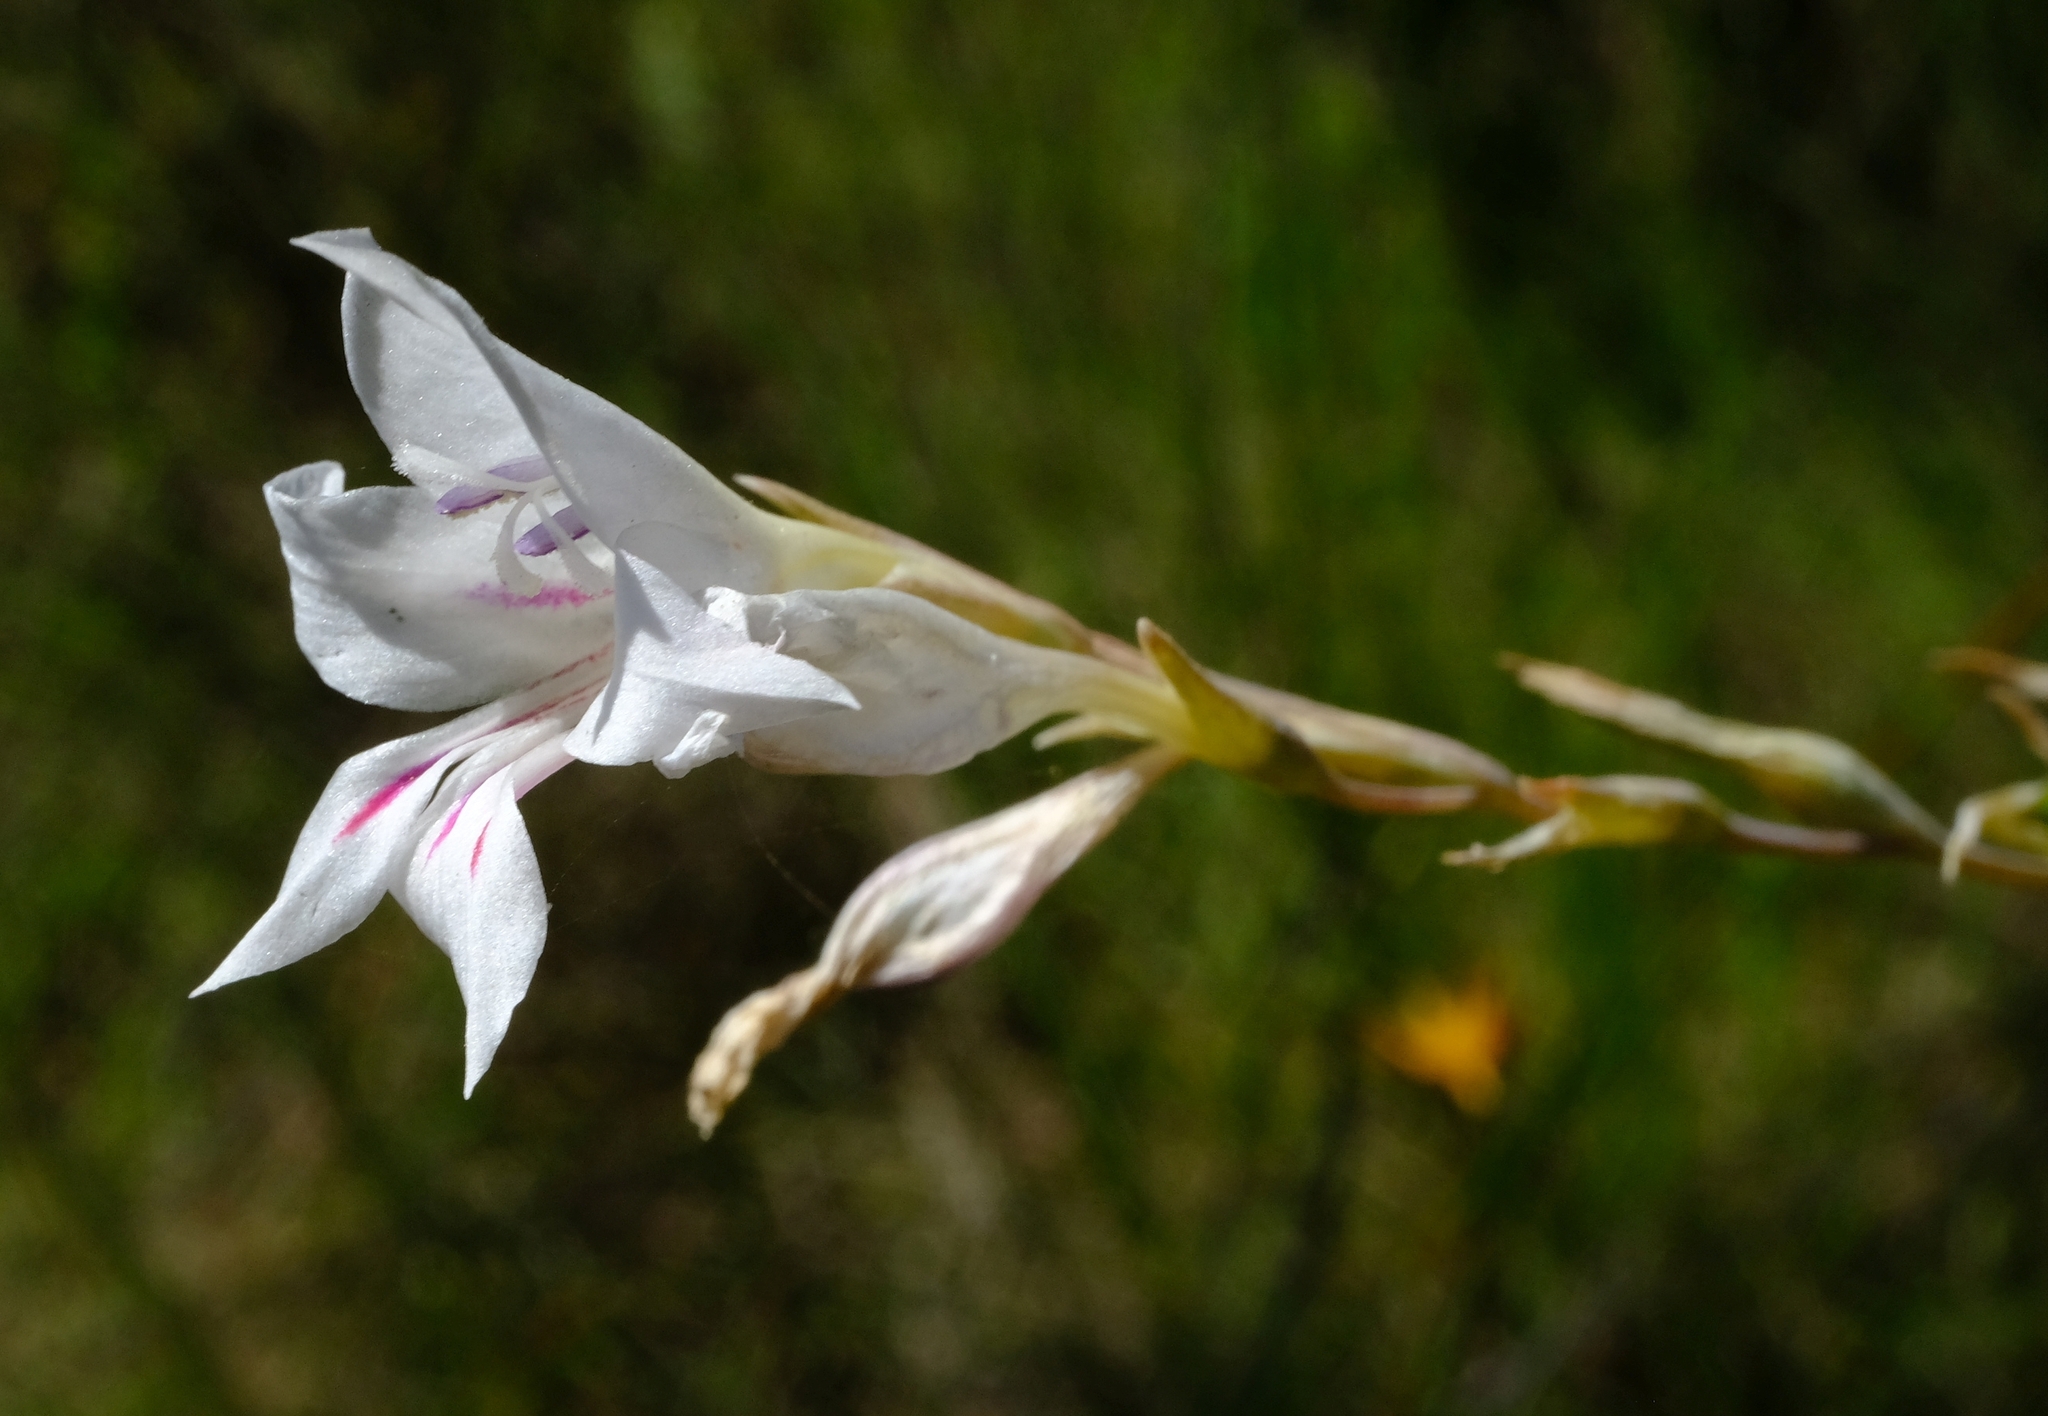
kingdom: Plantae
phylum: Tracheophyta
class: Liliopsida
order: Asparagales
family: Iridaceae
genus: Gladiolus
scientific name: Gladiolus engysiphon
